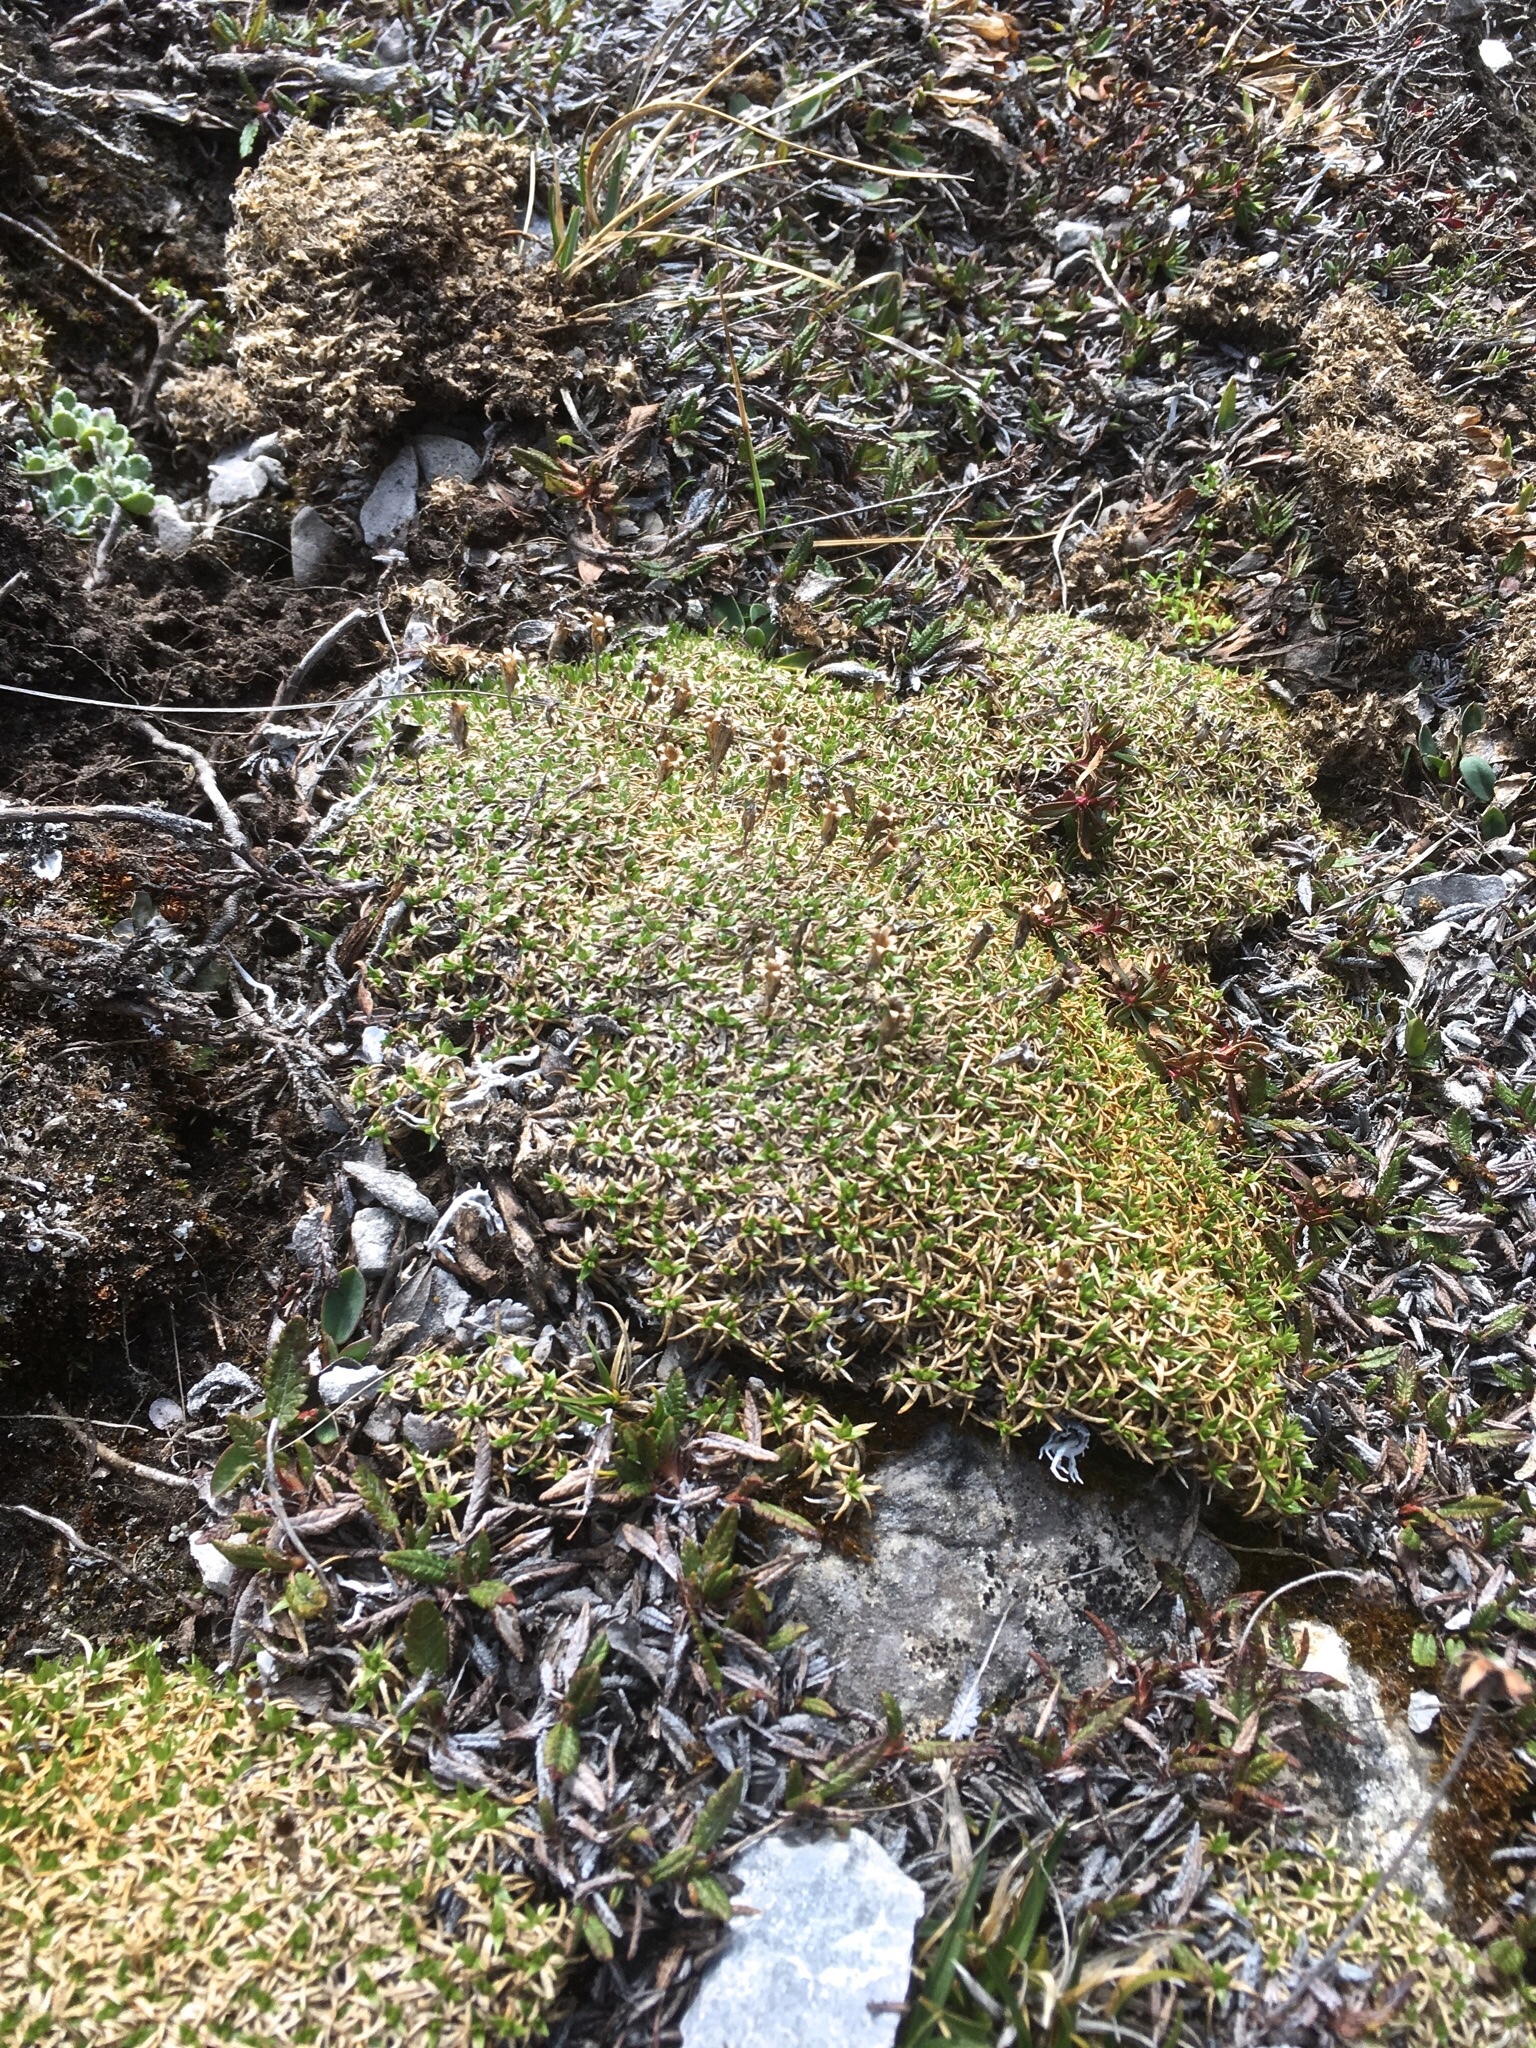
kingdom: Plantae
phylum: Tracheophyta
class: Magnoliopsida
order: Caryophyllales
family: Caryophyllaceae
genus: Silene
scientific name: Silene acaulis
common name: Moss campion
